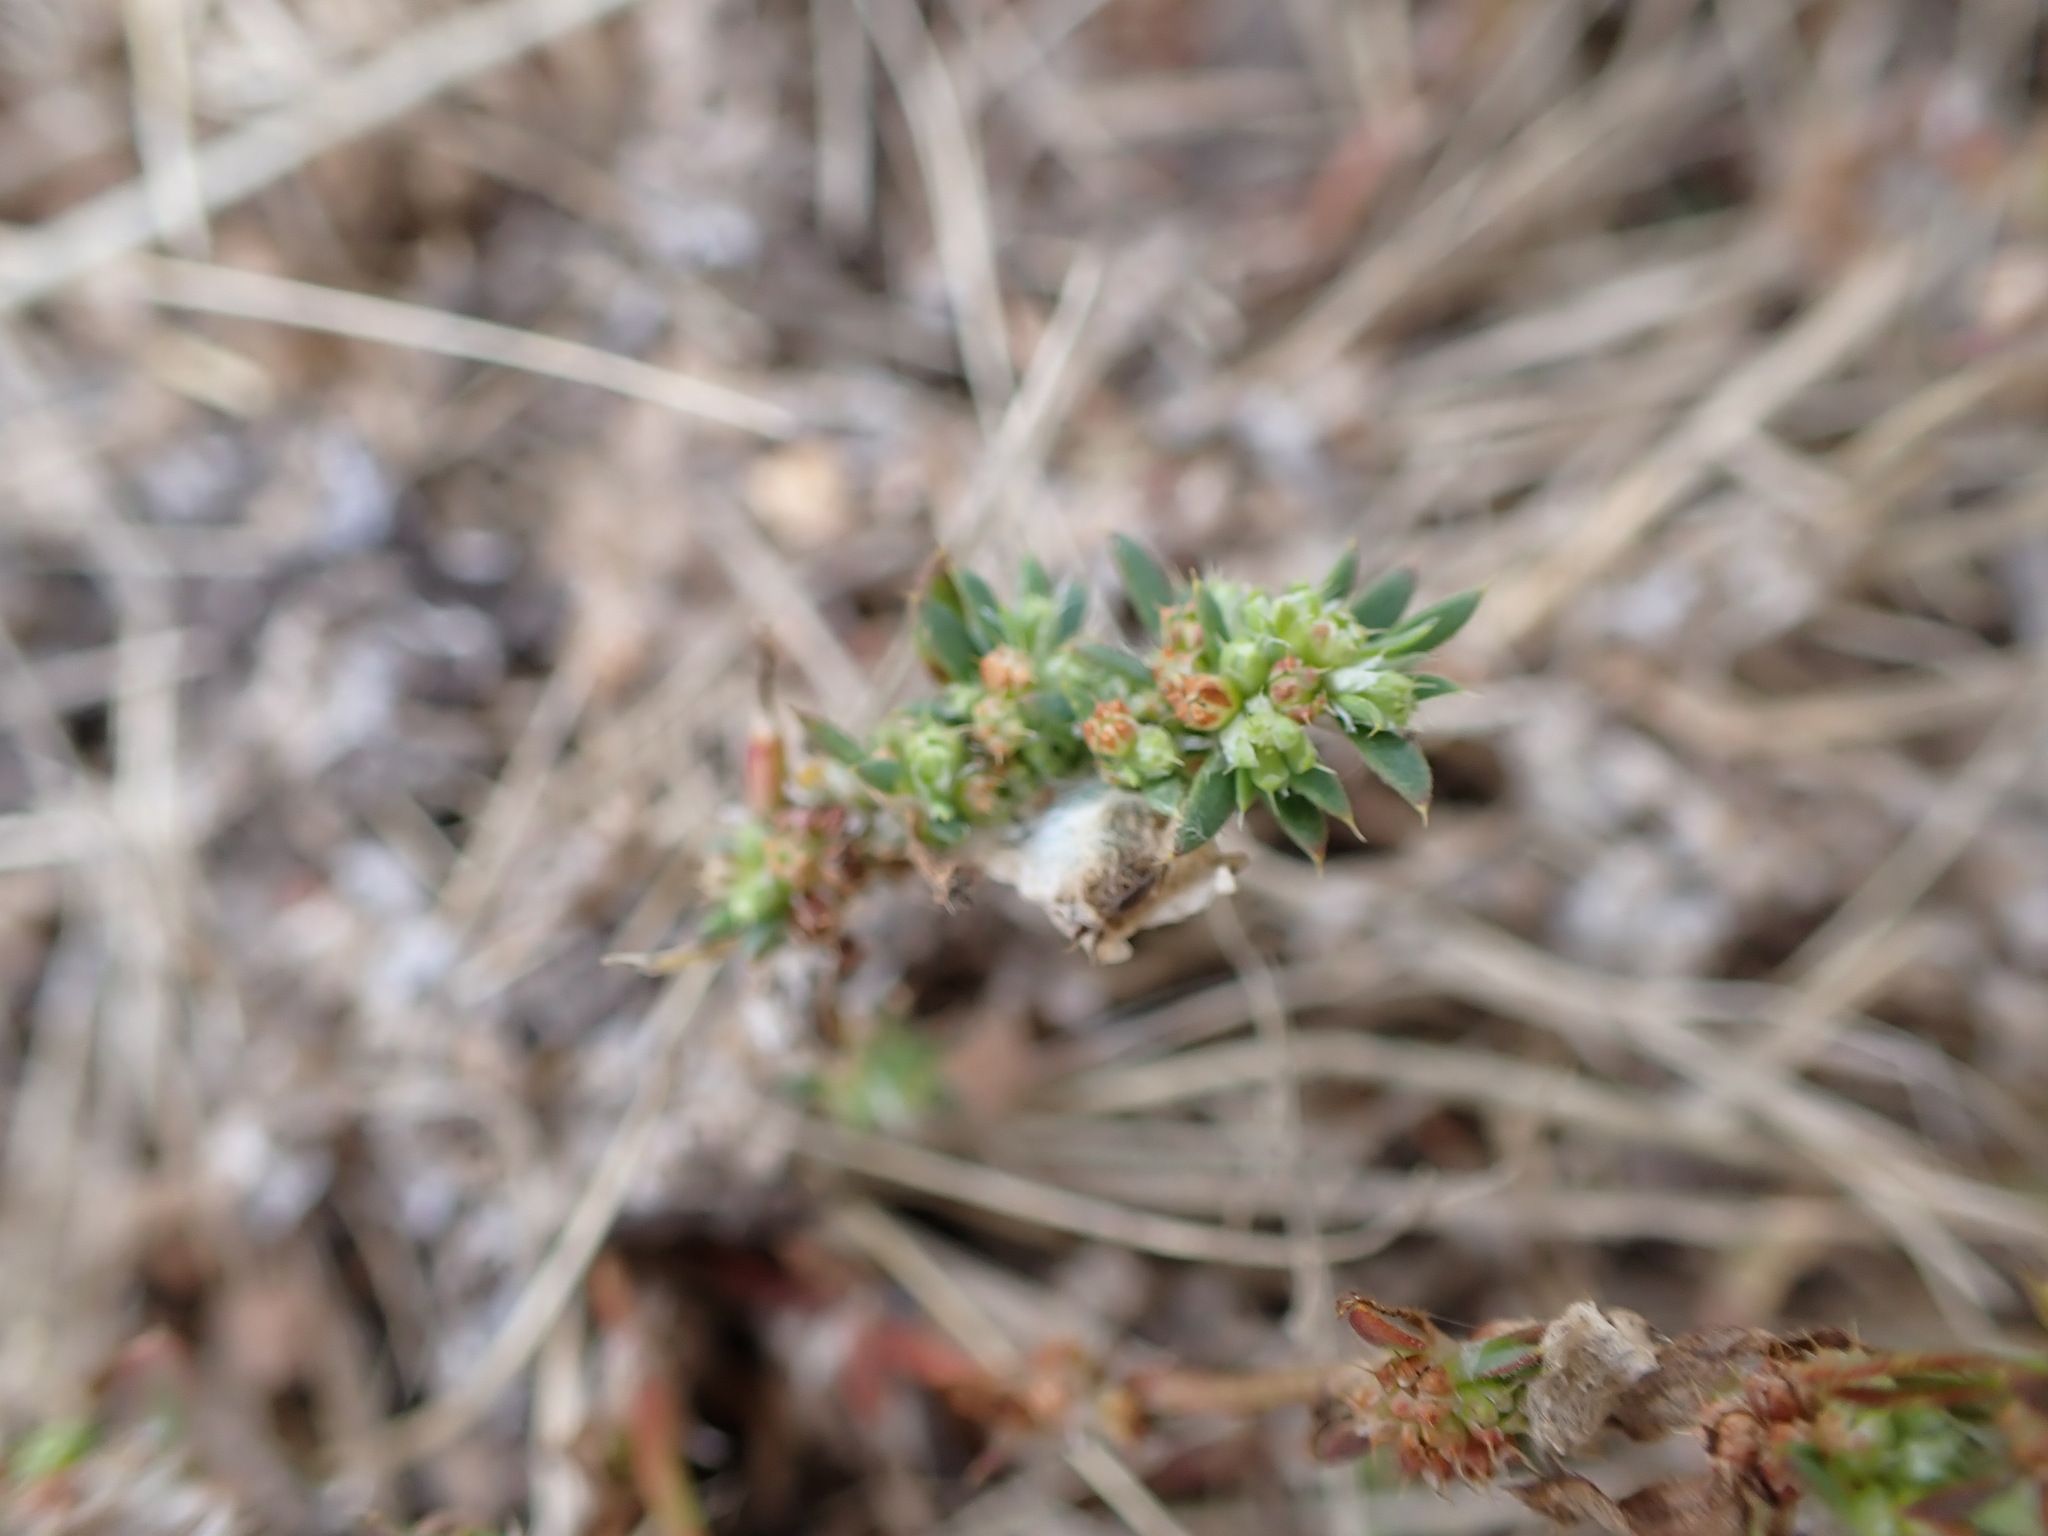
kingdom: Plantae
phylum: Tracheophyta
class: Magnoliopsida
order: Caryophyllales
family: Caryophyllaceae
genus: Paronychia
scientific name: Paronychia brasiliana
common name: Brazilian whitlow
